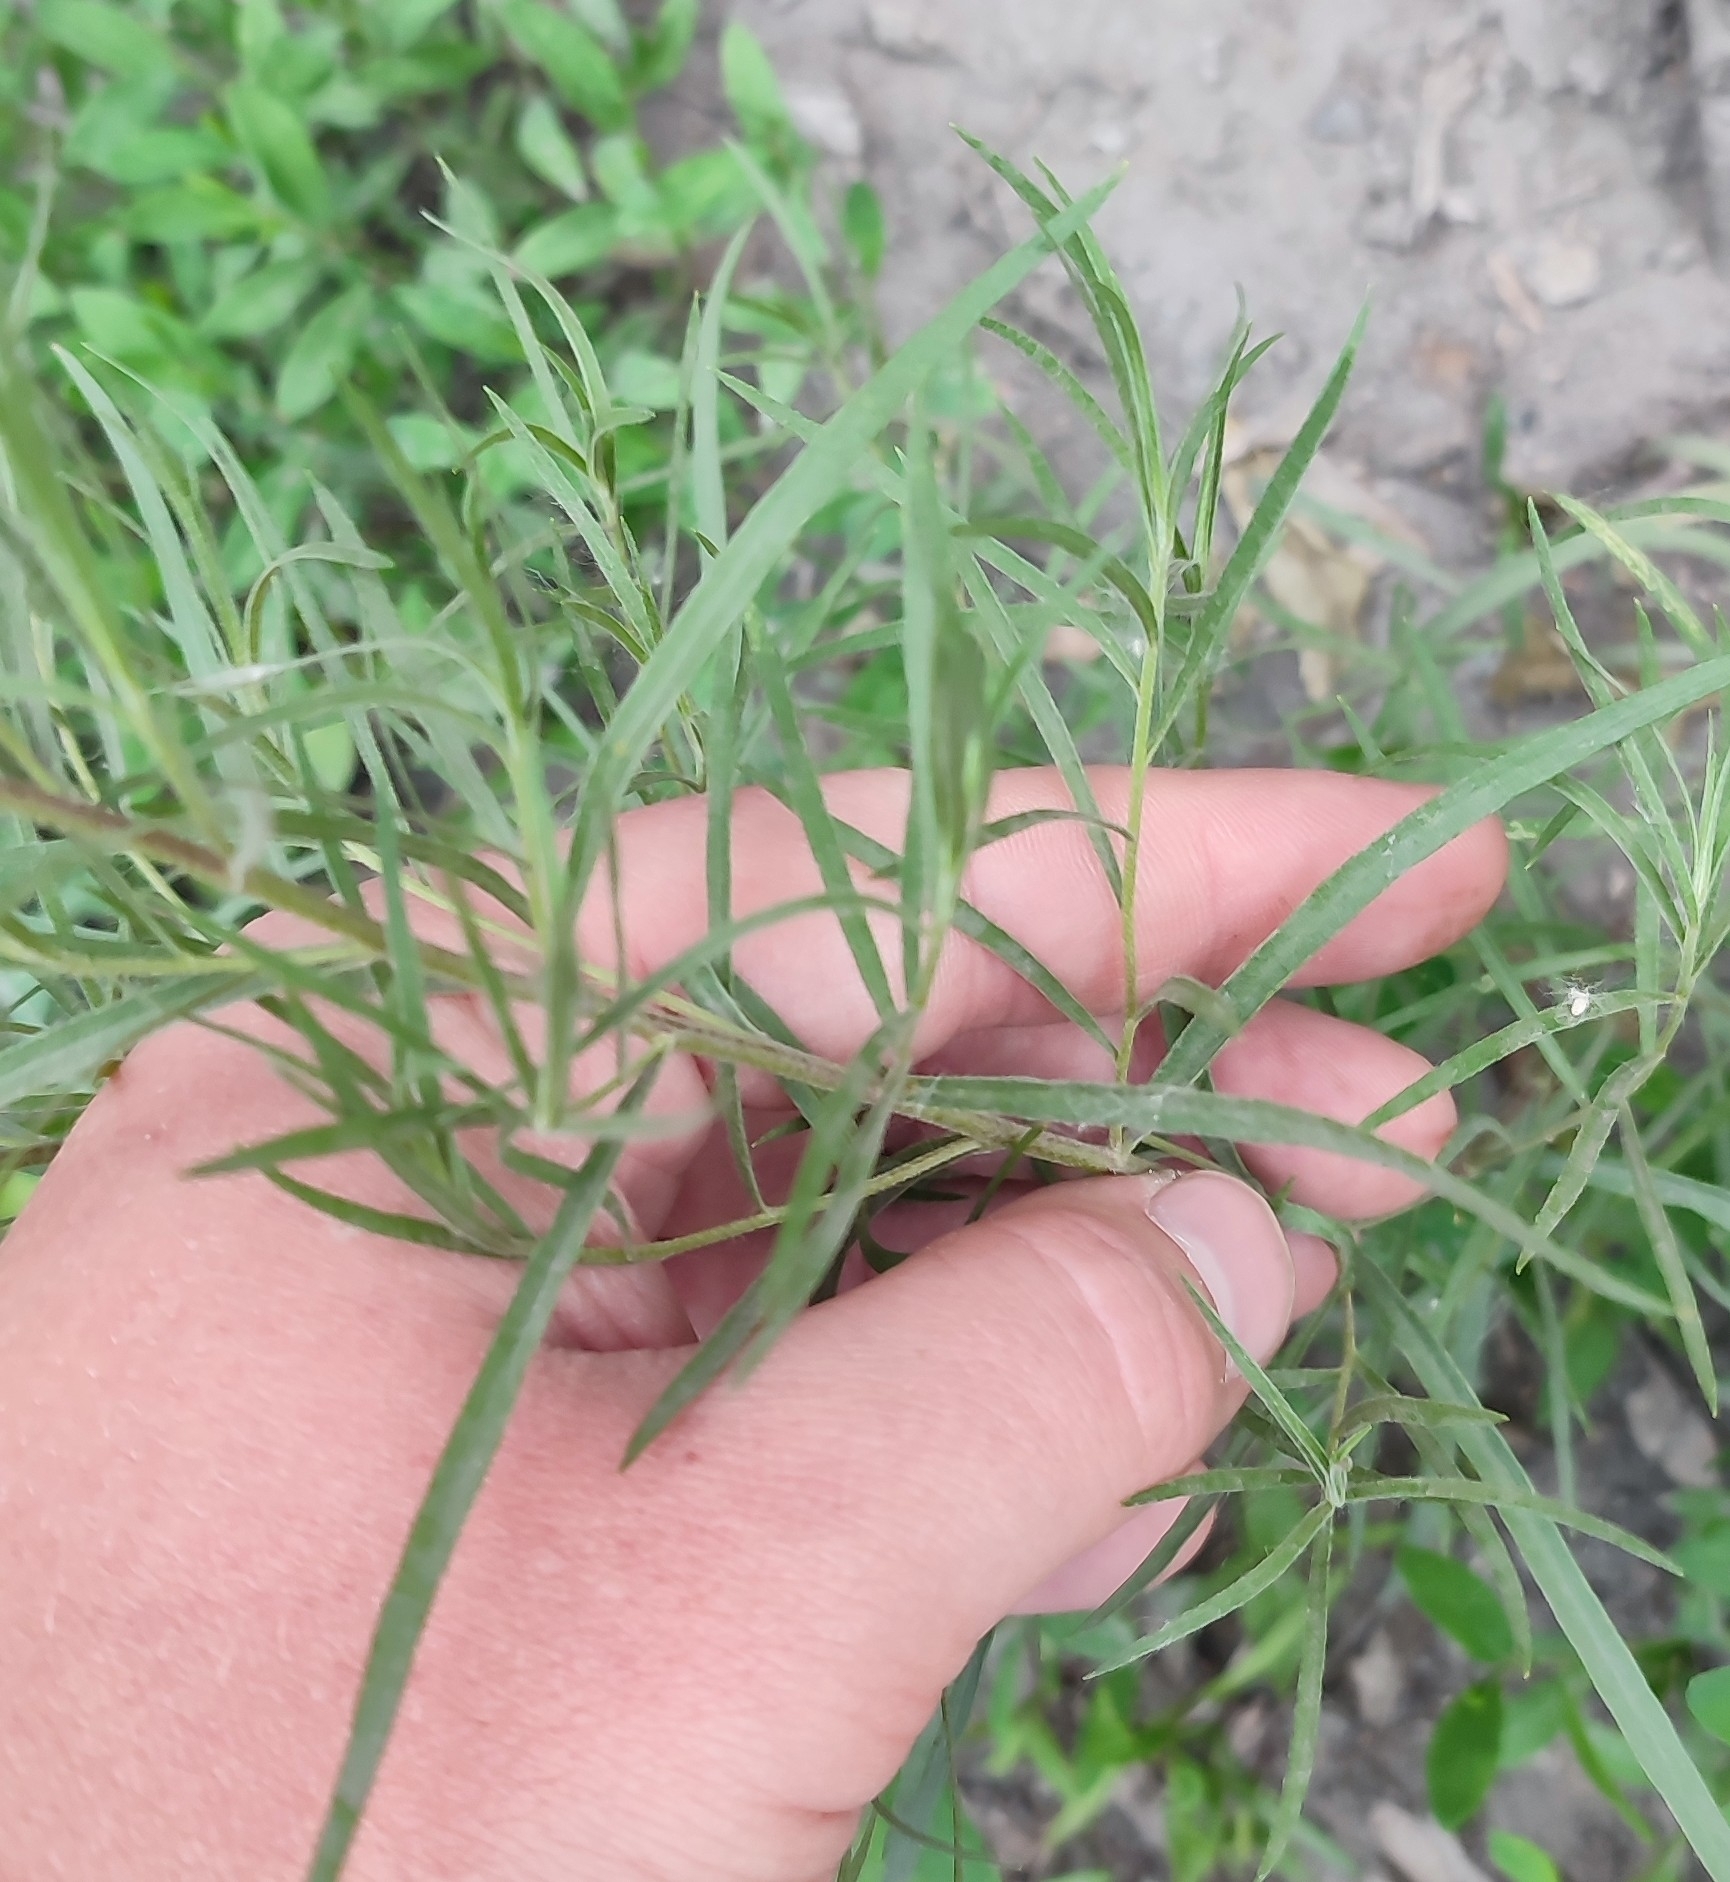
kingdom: Plantae
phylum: Tracheophyta
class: Magnoliopsida
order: Asterales
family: Asteraceae
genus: Artemisia
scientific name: Artemisia dracunculus
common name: Tarragon
